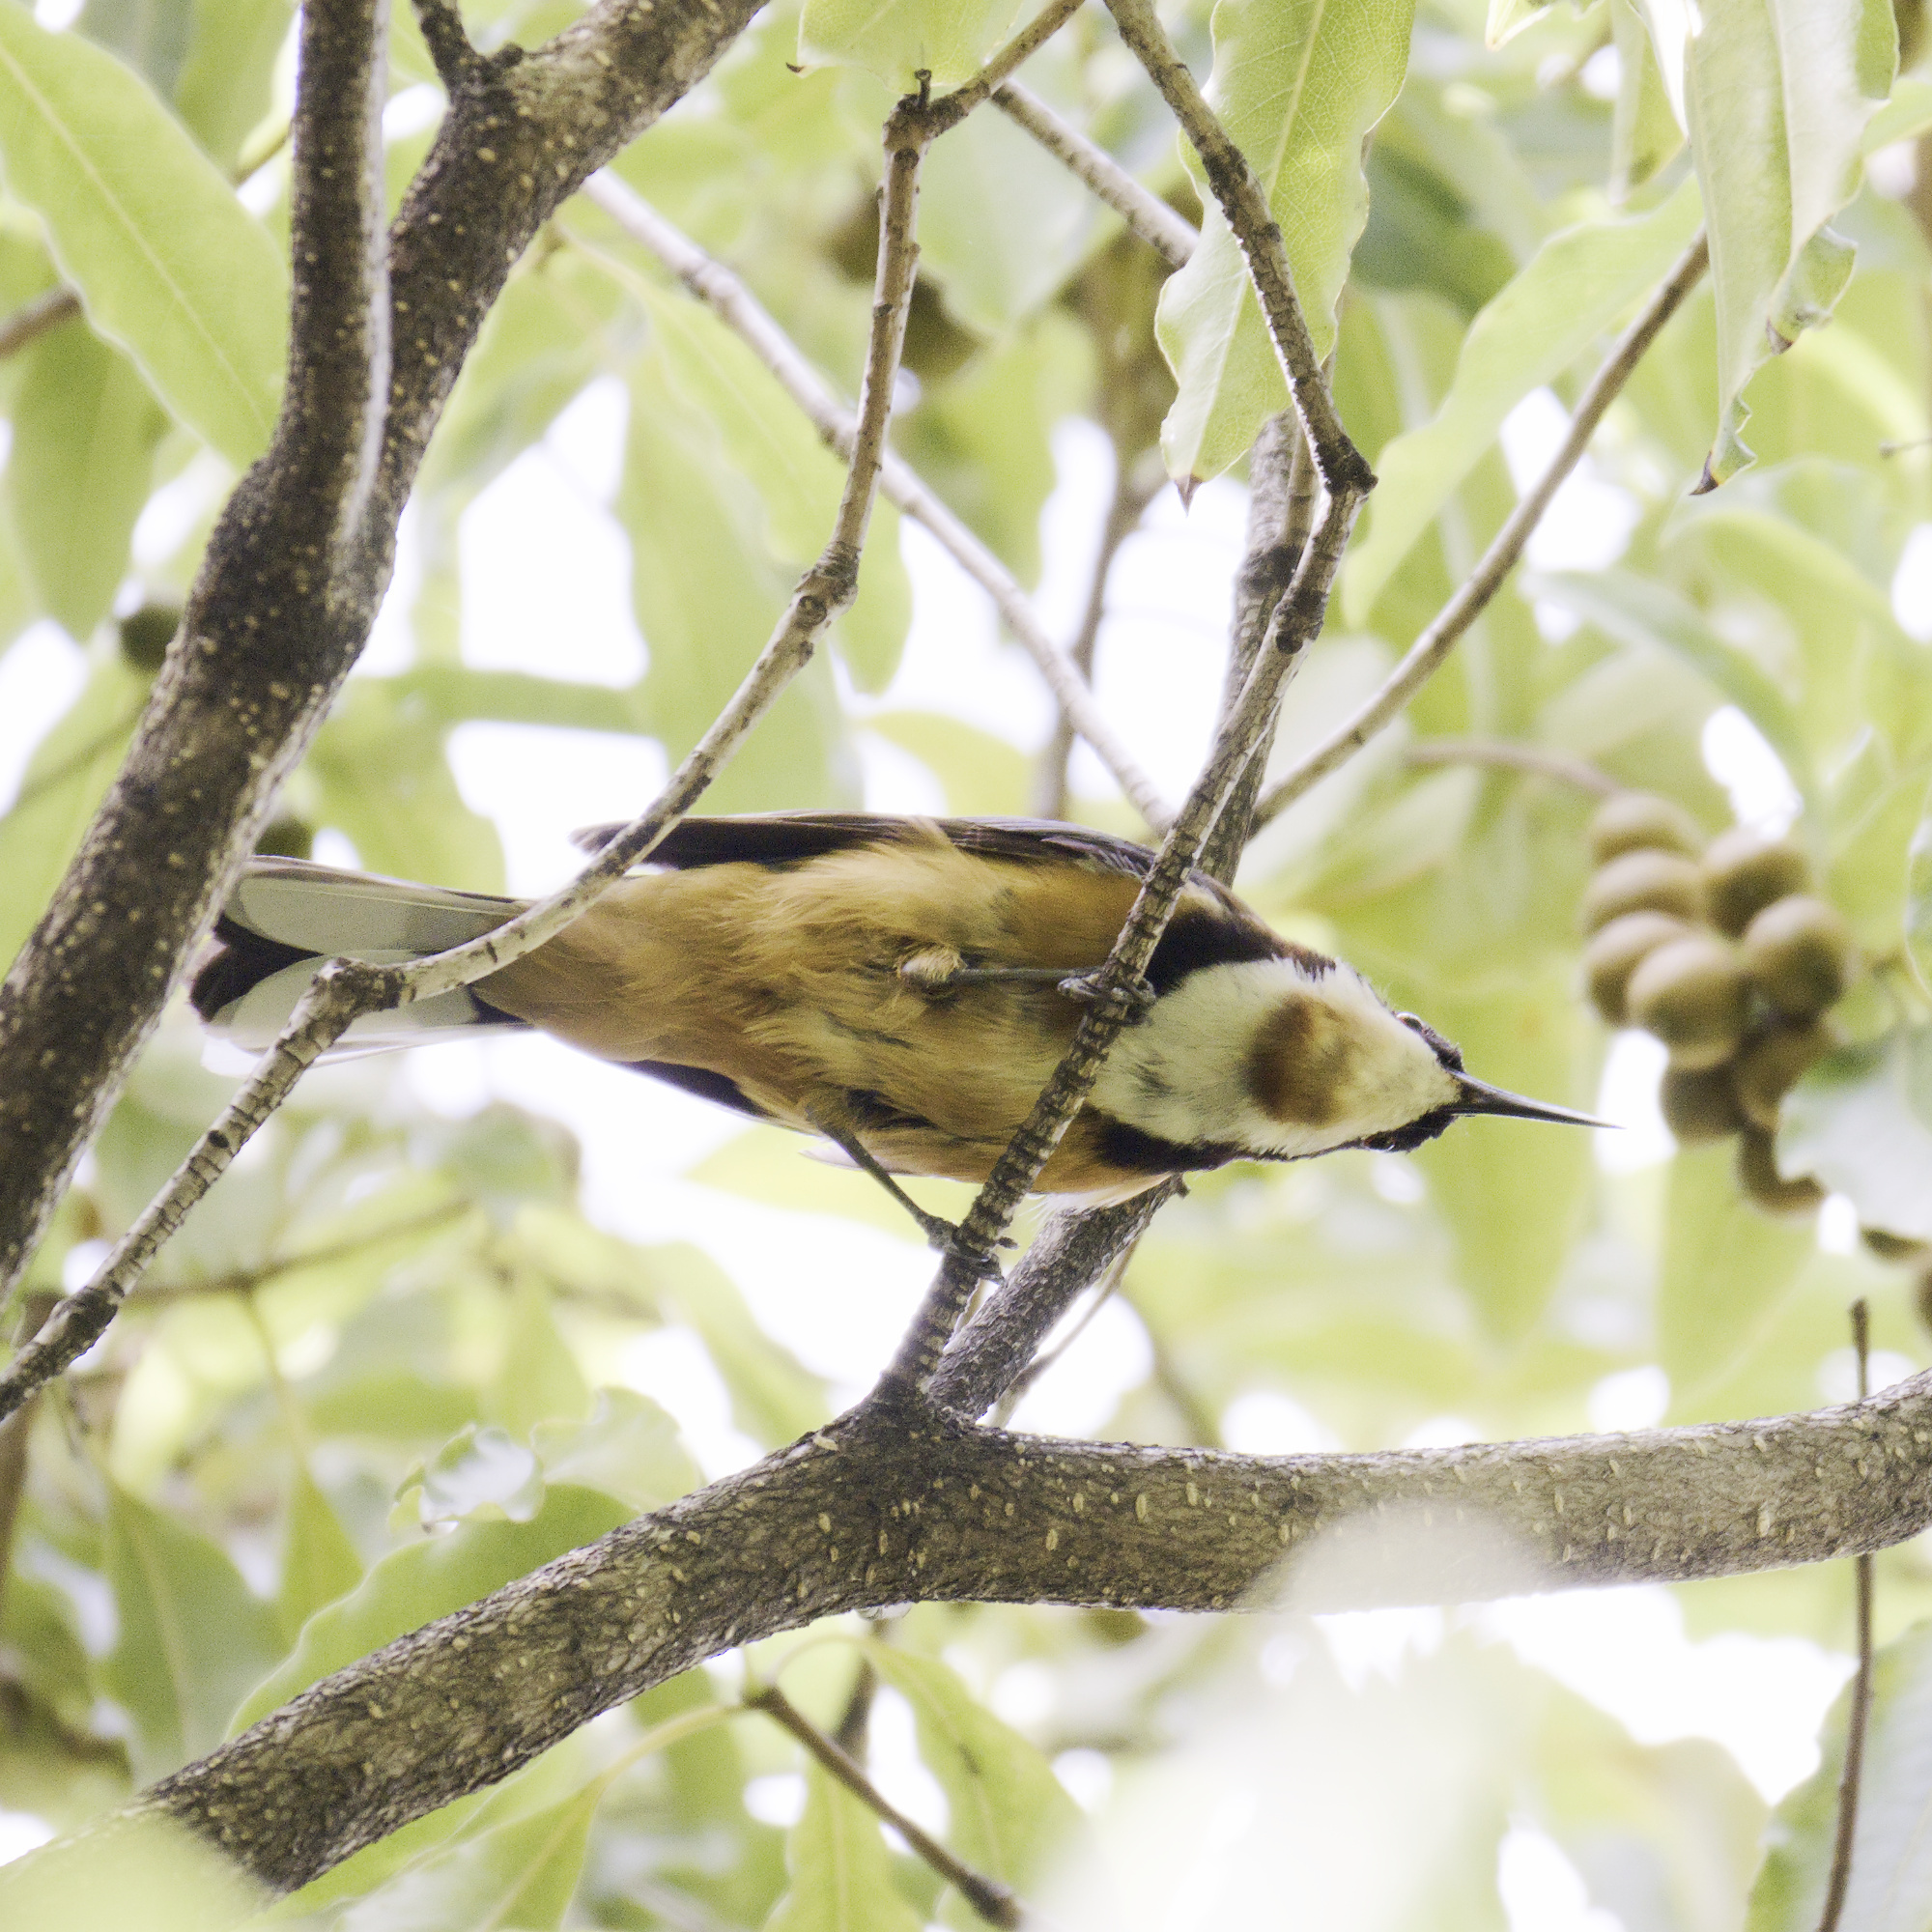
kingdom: Animalia
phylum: Chordata
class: Aves
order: Passeriformes
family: Meliphagidae
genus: Acanthorhynchus
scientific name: Acanthorhynchus tenuirostris
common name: Eastern spinebill
